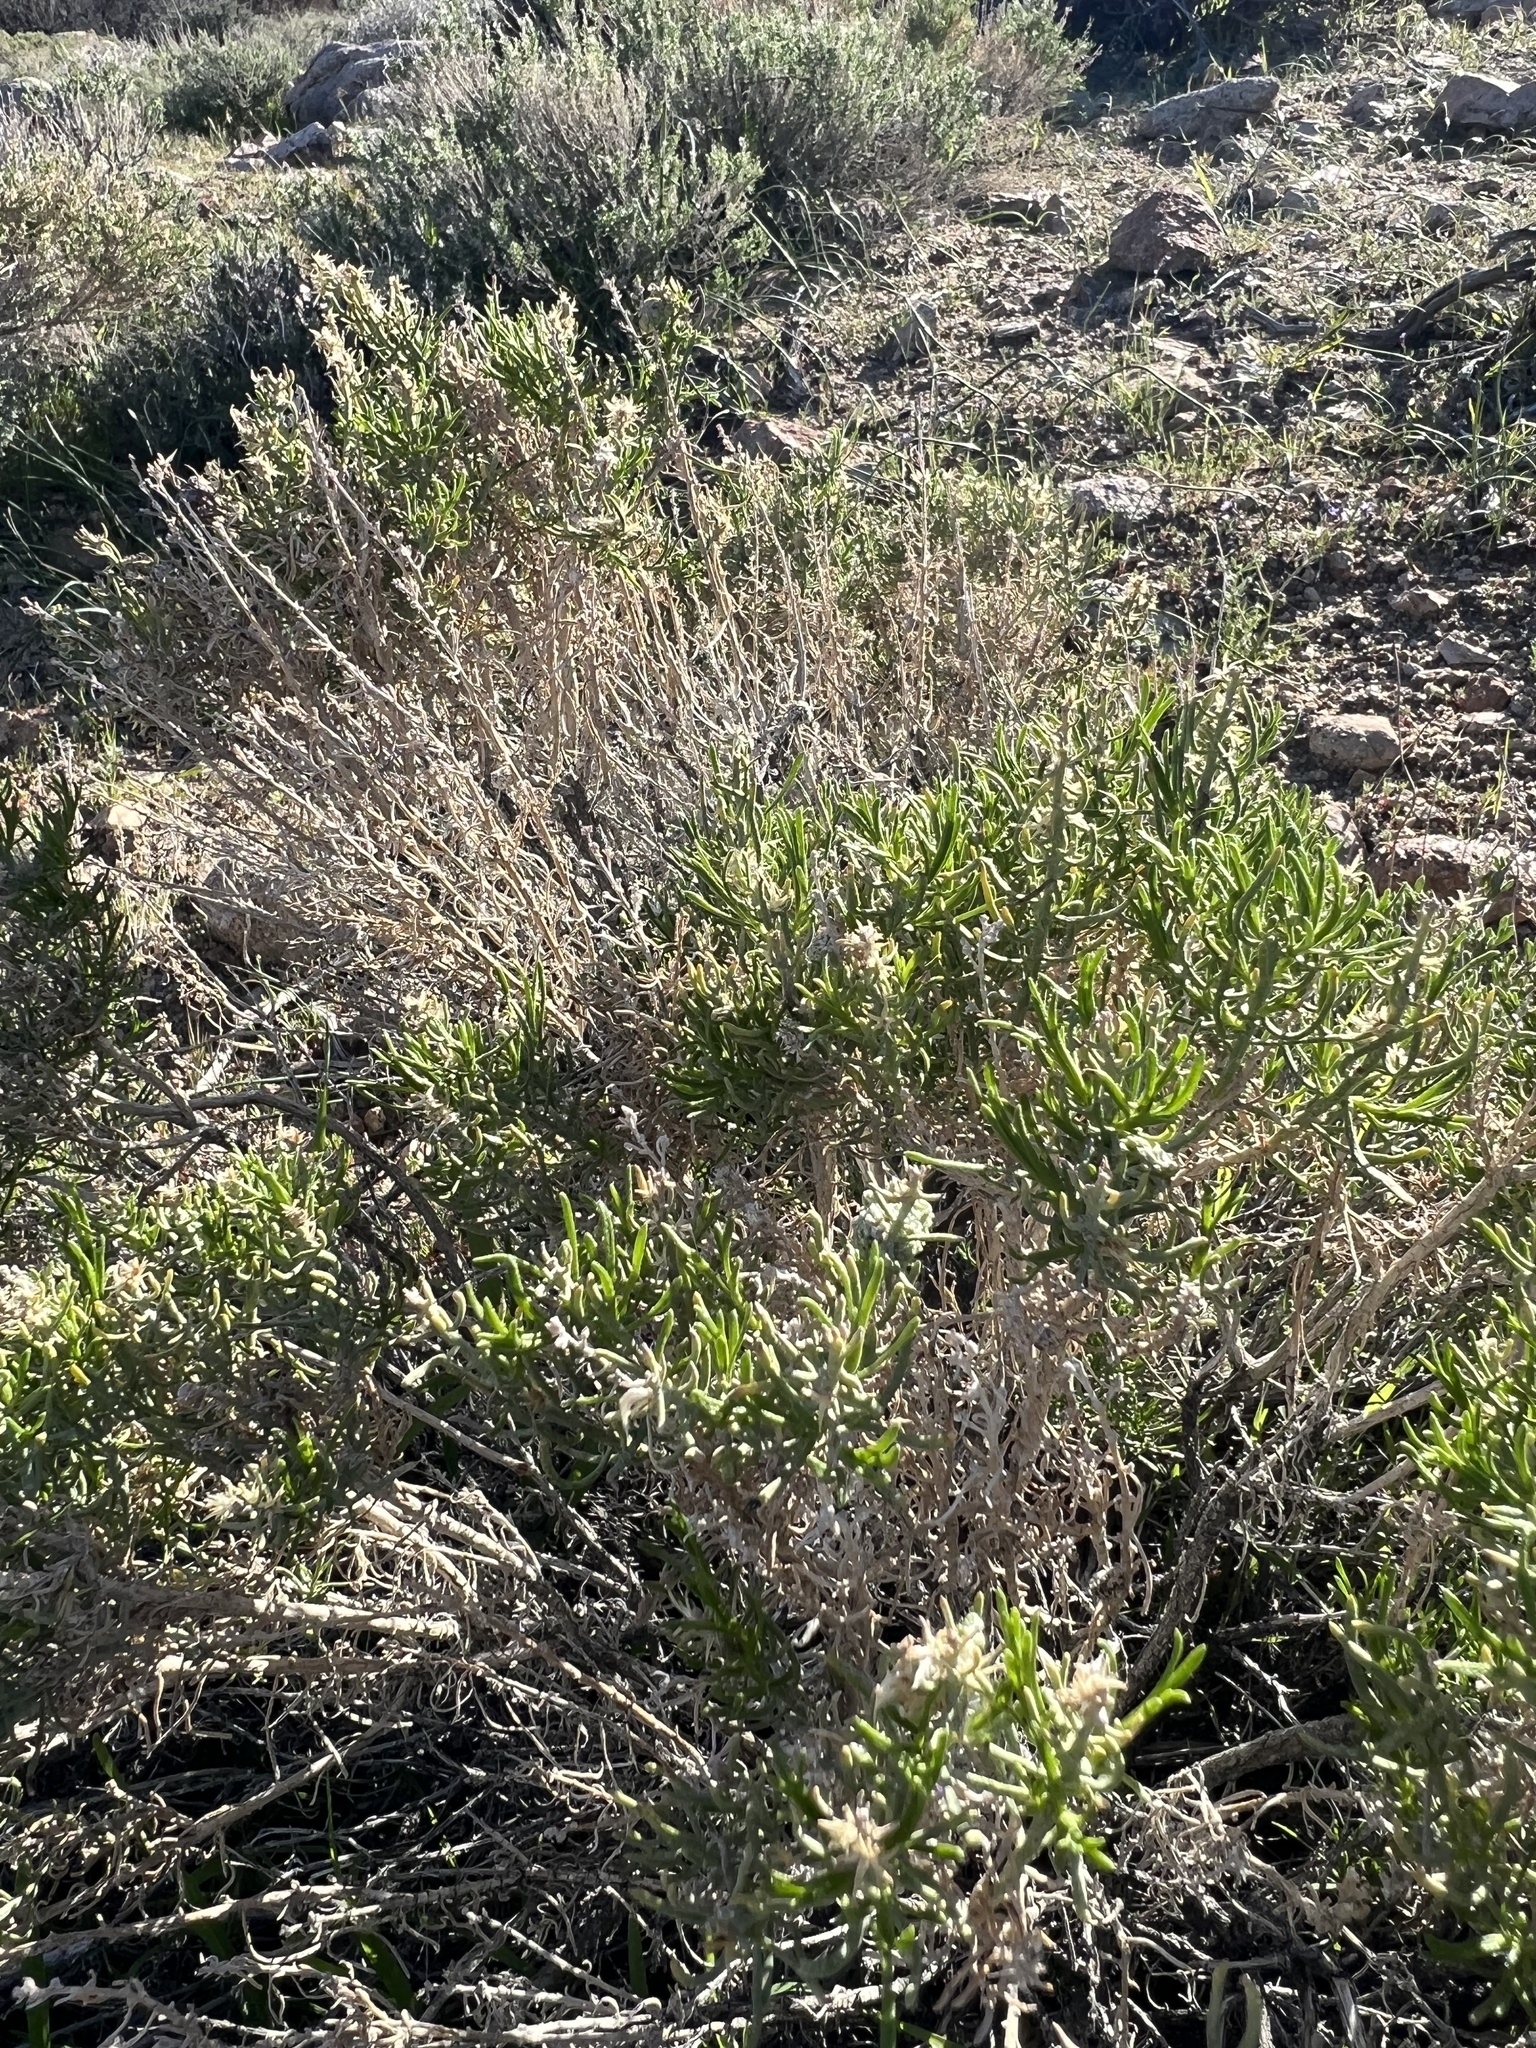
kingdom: Plantae
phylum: Tracheophyta
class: Magnoliopsida
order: Asterales
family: Asteraceae
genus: Ericameria
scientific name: Ericameria teretifolia
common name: Round-leaf rabbitbrush
